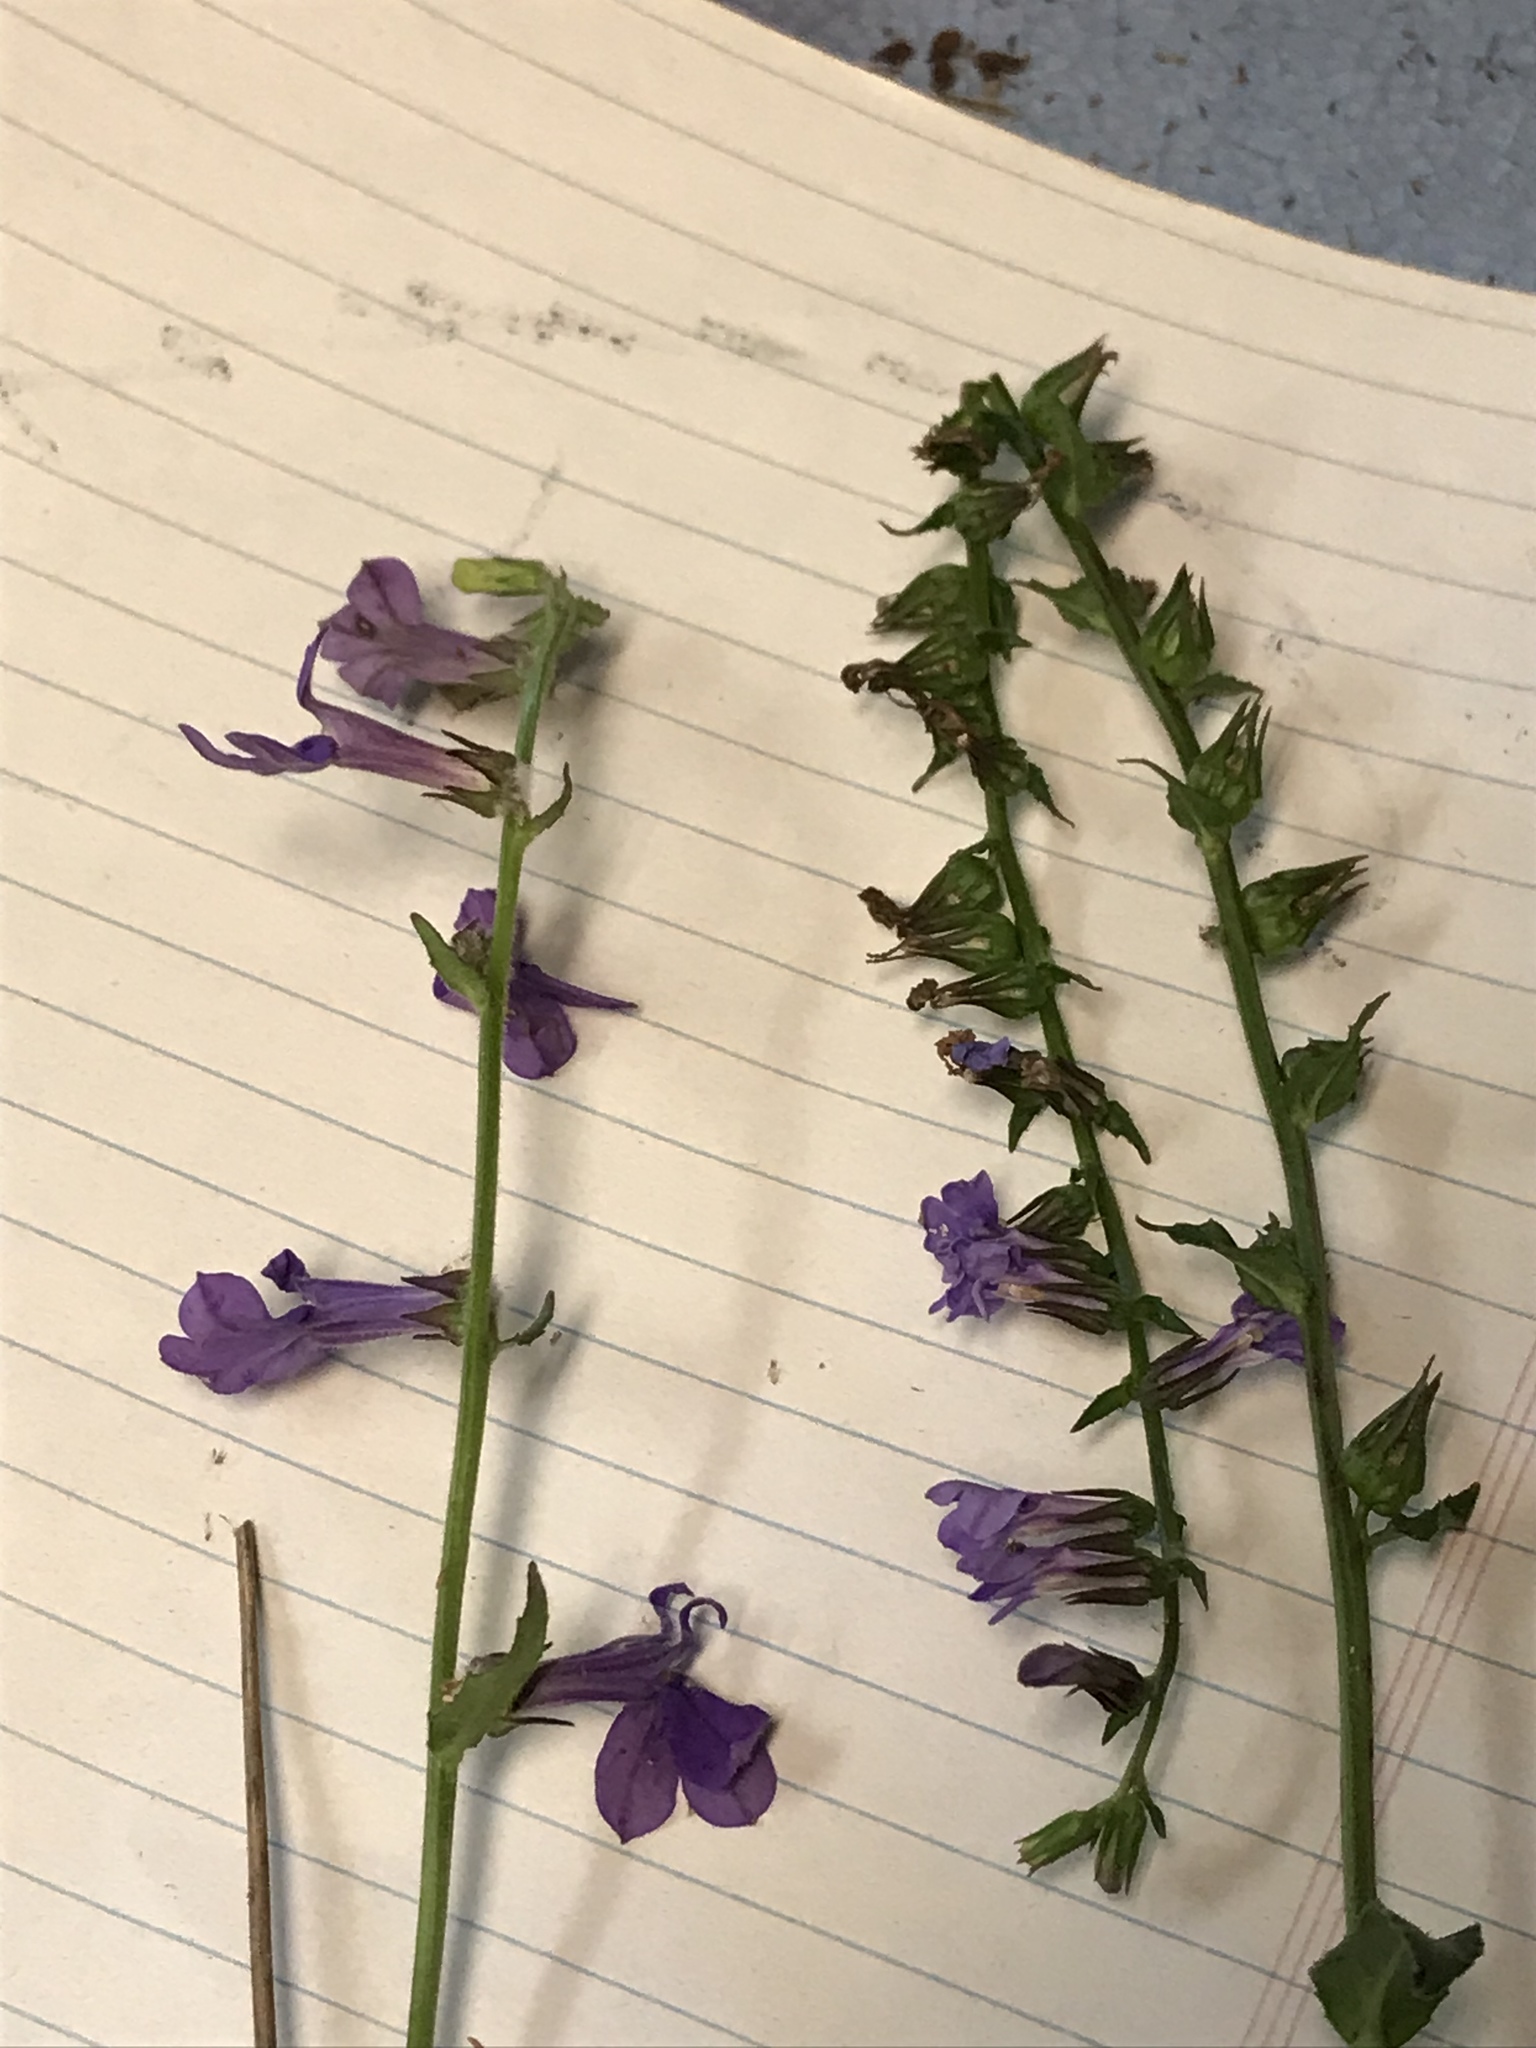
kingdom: Plantae
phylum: Tracheophyta
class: Magnoliopsida
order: Asterales
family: Campanulaceae
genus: Lobelia
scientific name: Lobelia reverchonii
